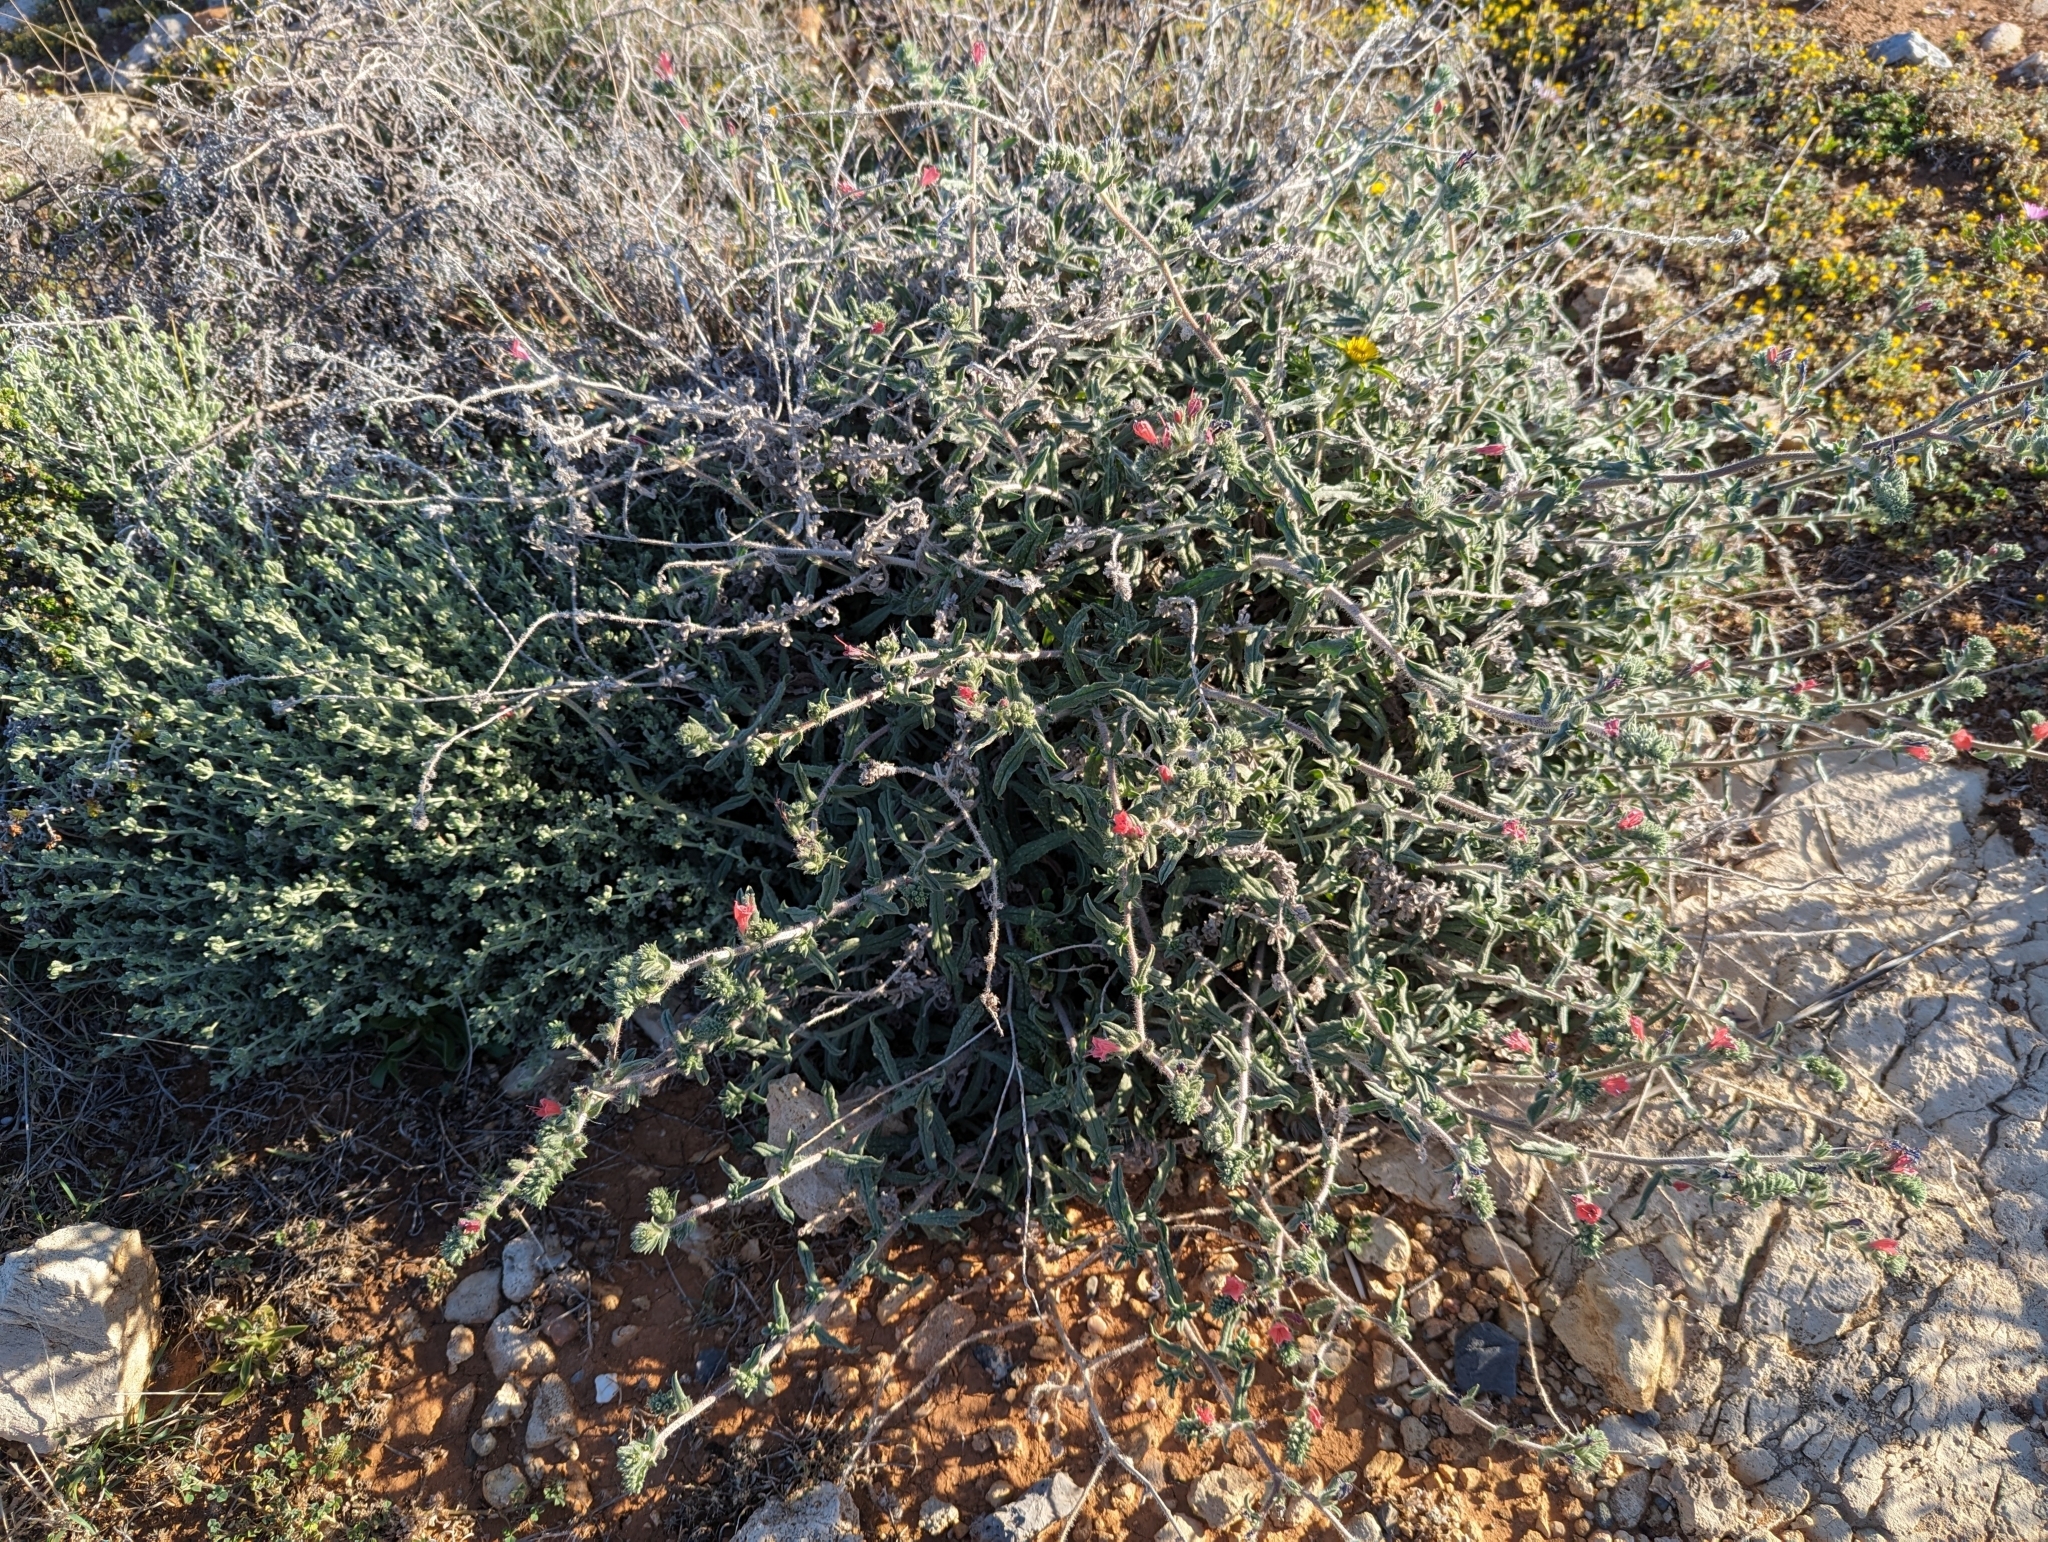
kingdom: Plantae
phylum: Tracheophyta
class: Magnoliopsida
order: Boraginales
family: Boraginaceae
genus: Echium
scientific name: Echium angustifolium
